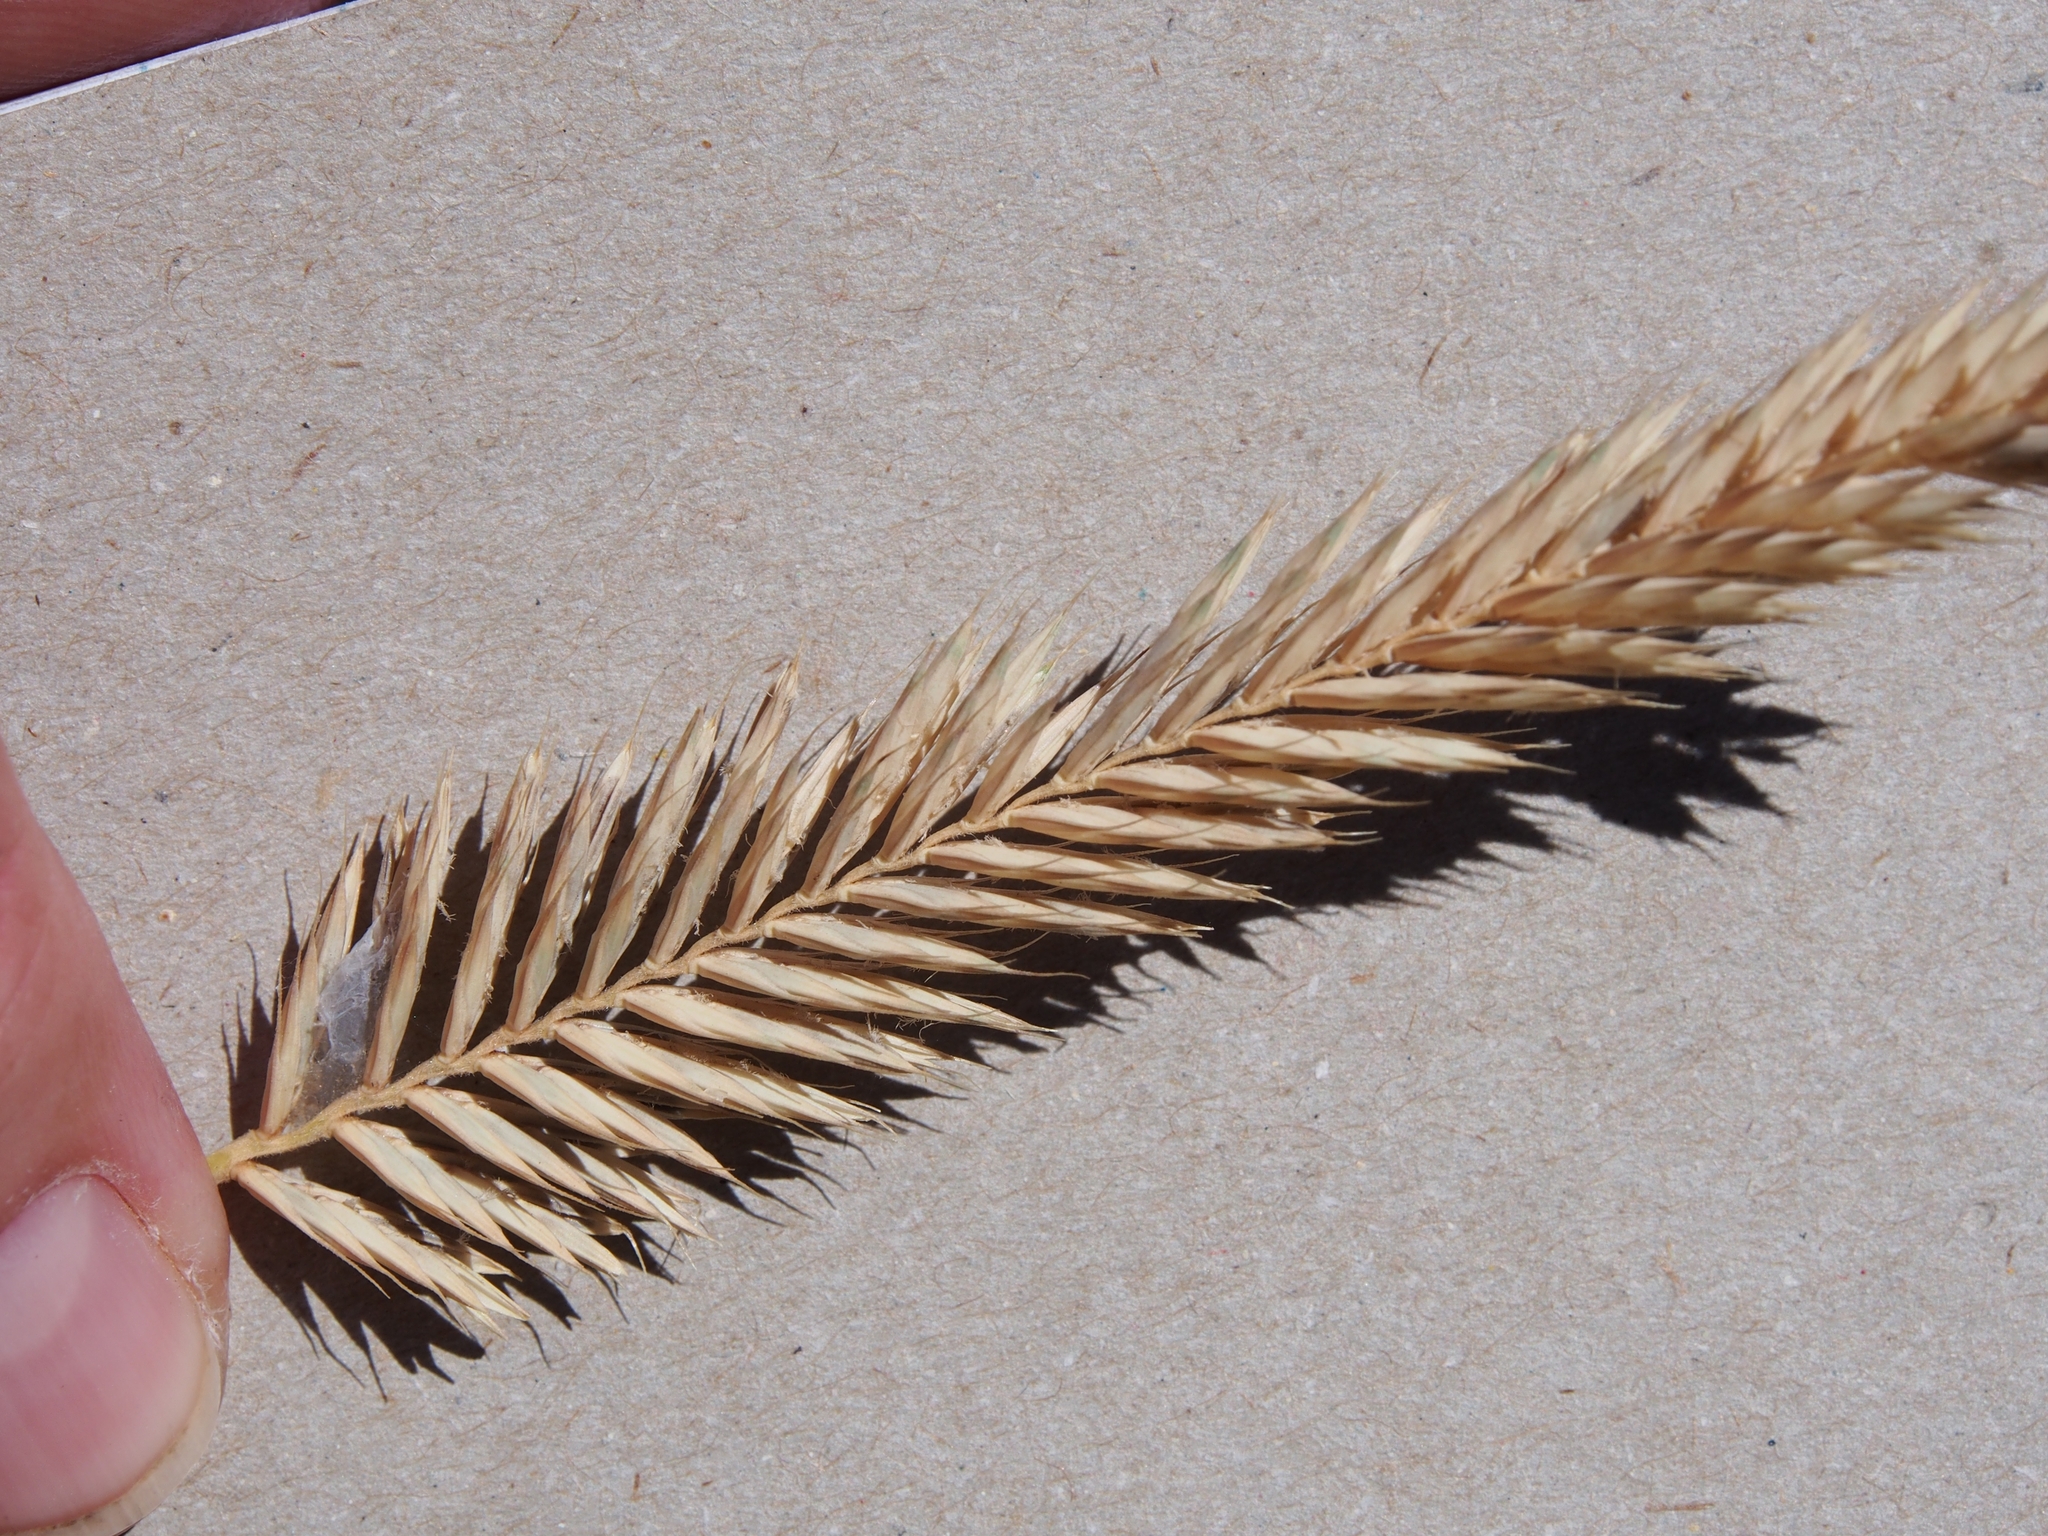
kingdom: Plantae
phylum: Tracheophyta
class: Liliopsida
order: Poales
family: Poaceae
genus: Agropyron
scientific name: Agropyron cristatum
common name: Crested wheatgrass
